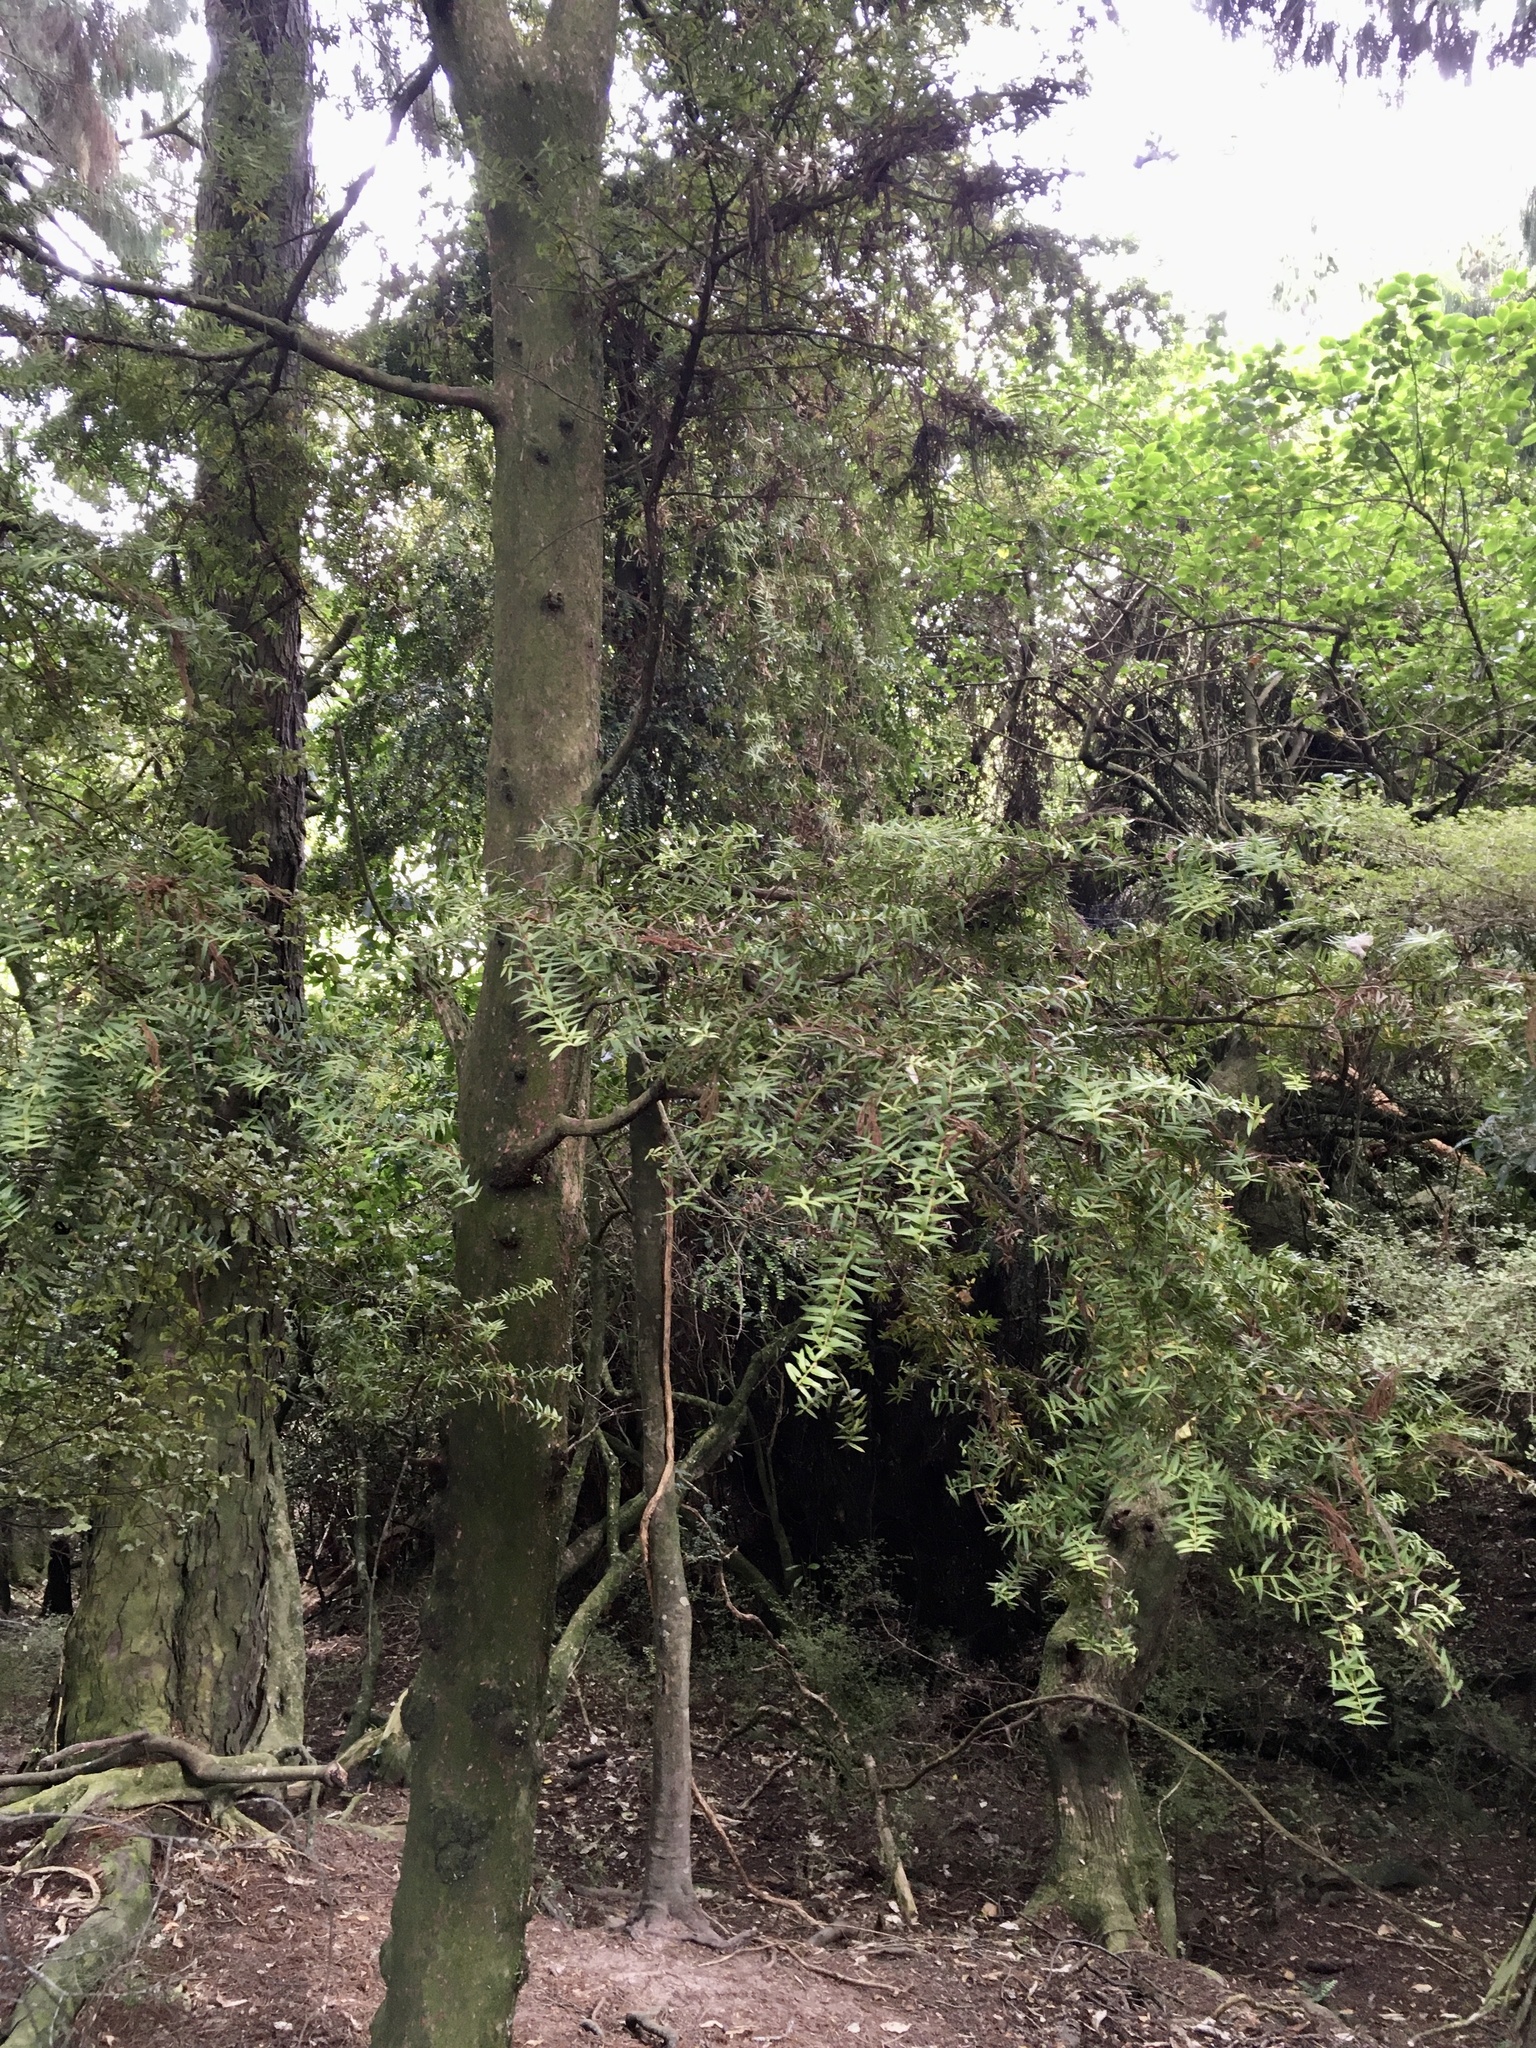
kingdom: Plantae
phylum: Tracheophyta
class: Pinopsida
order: Pinales
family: Podocarpaceae
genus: Podocarpus
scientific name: Podocarpus laetus
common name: Hall's totara
